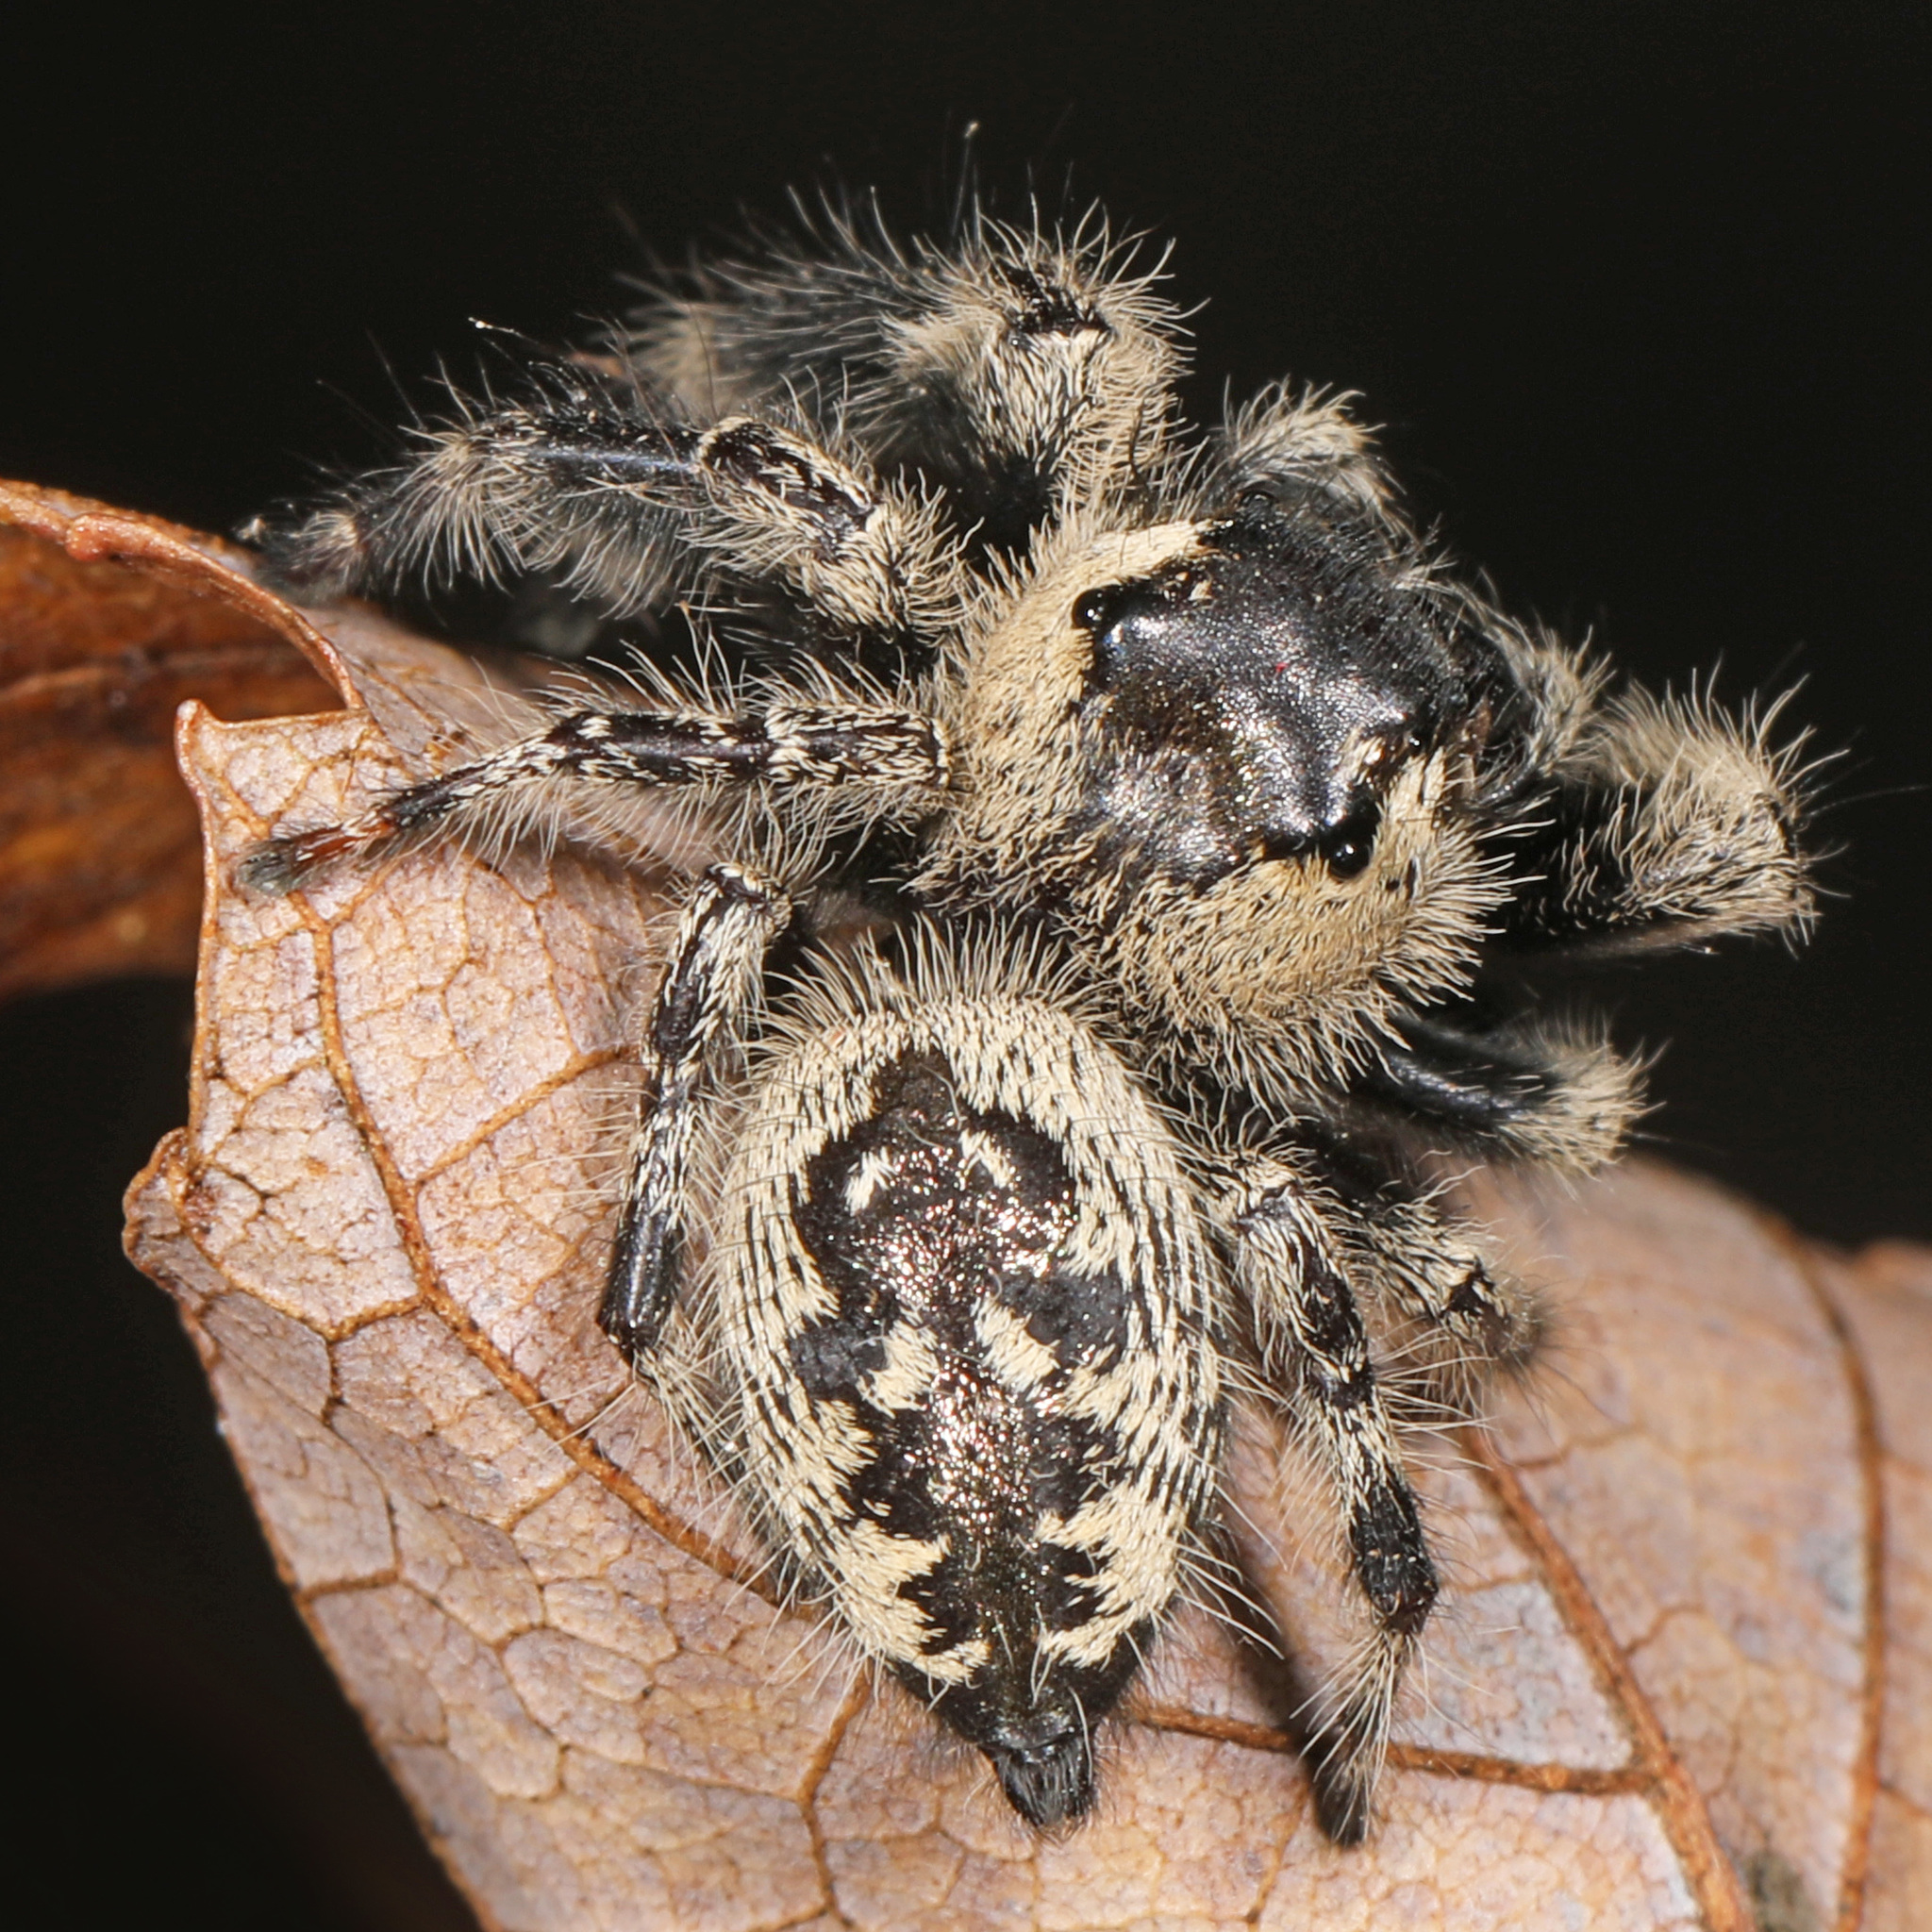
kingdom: Animalia
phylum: Arthropoda
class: Arachnida
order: Araneae
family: Salticidae
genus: Phidippus
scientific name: Phidippus otiosus
